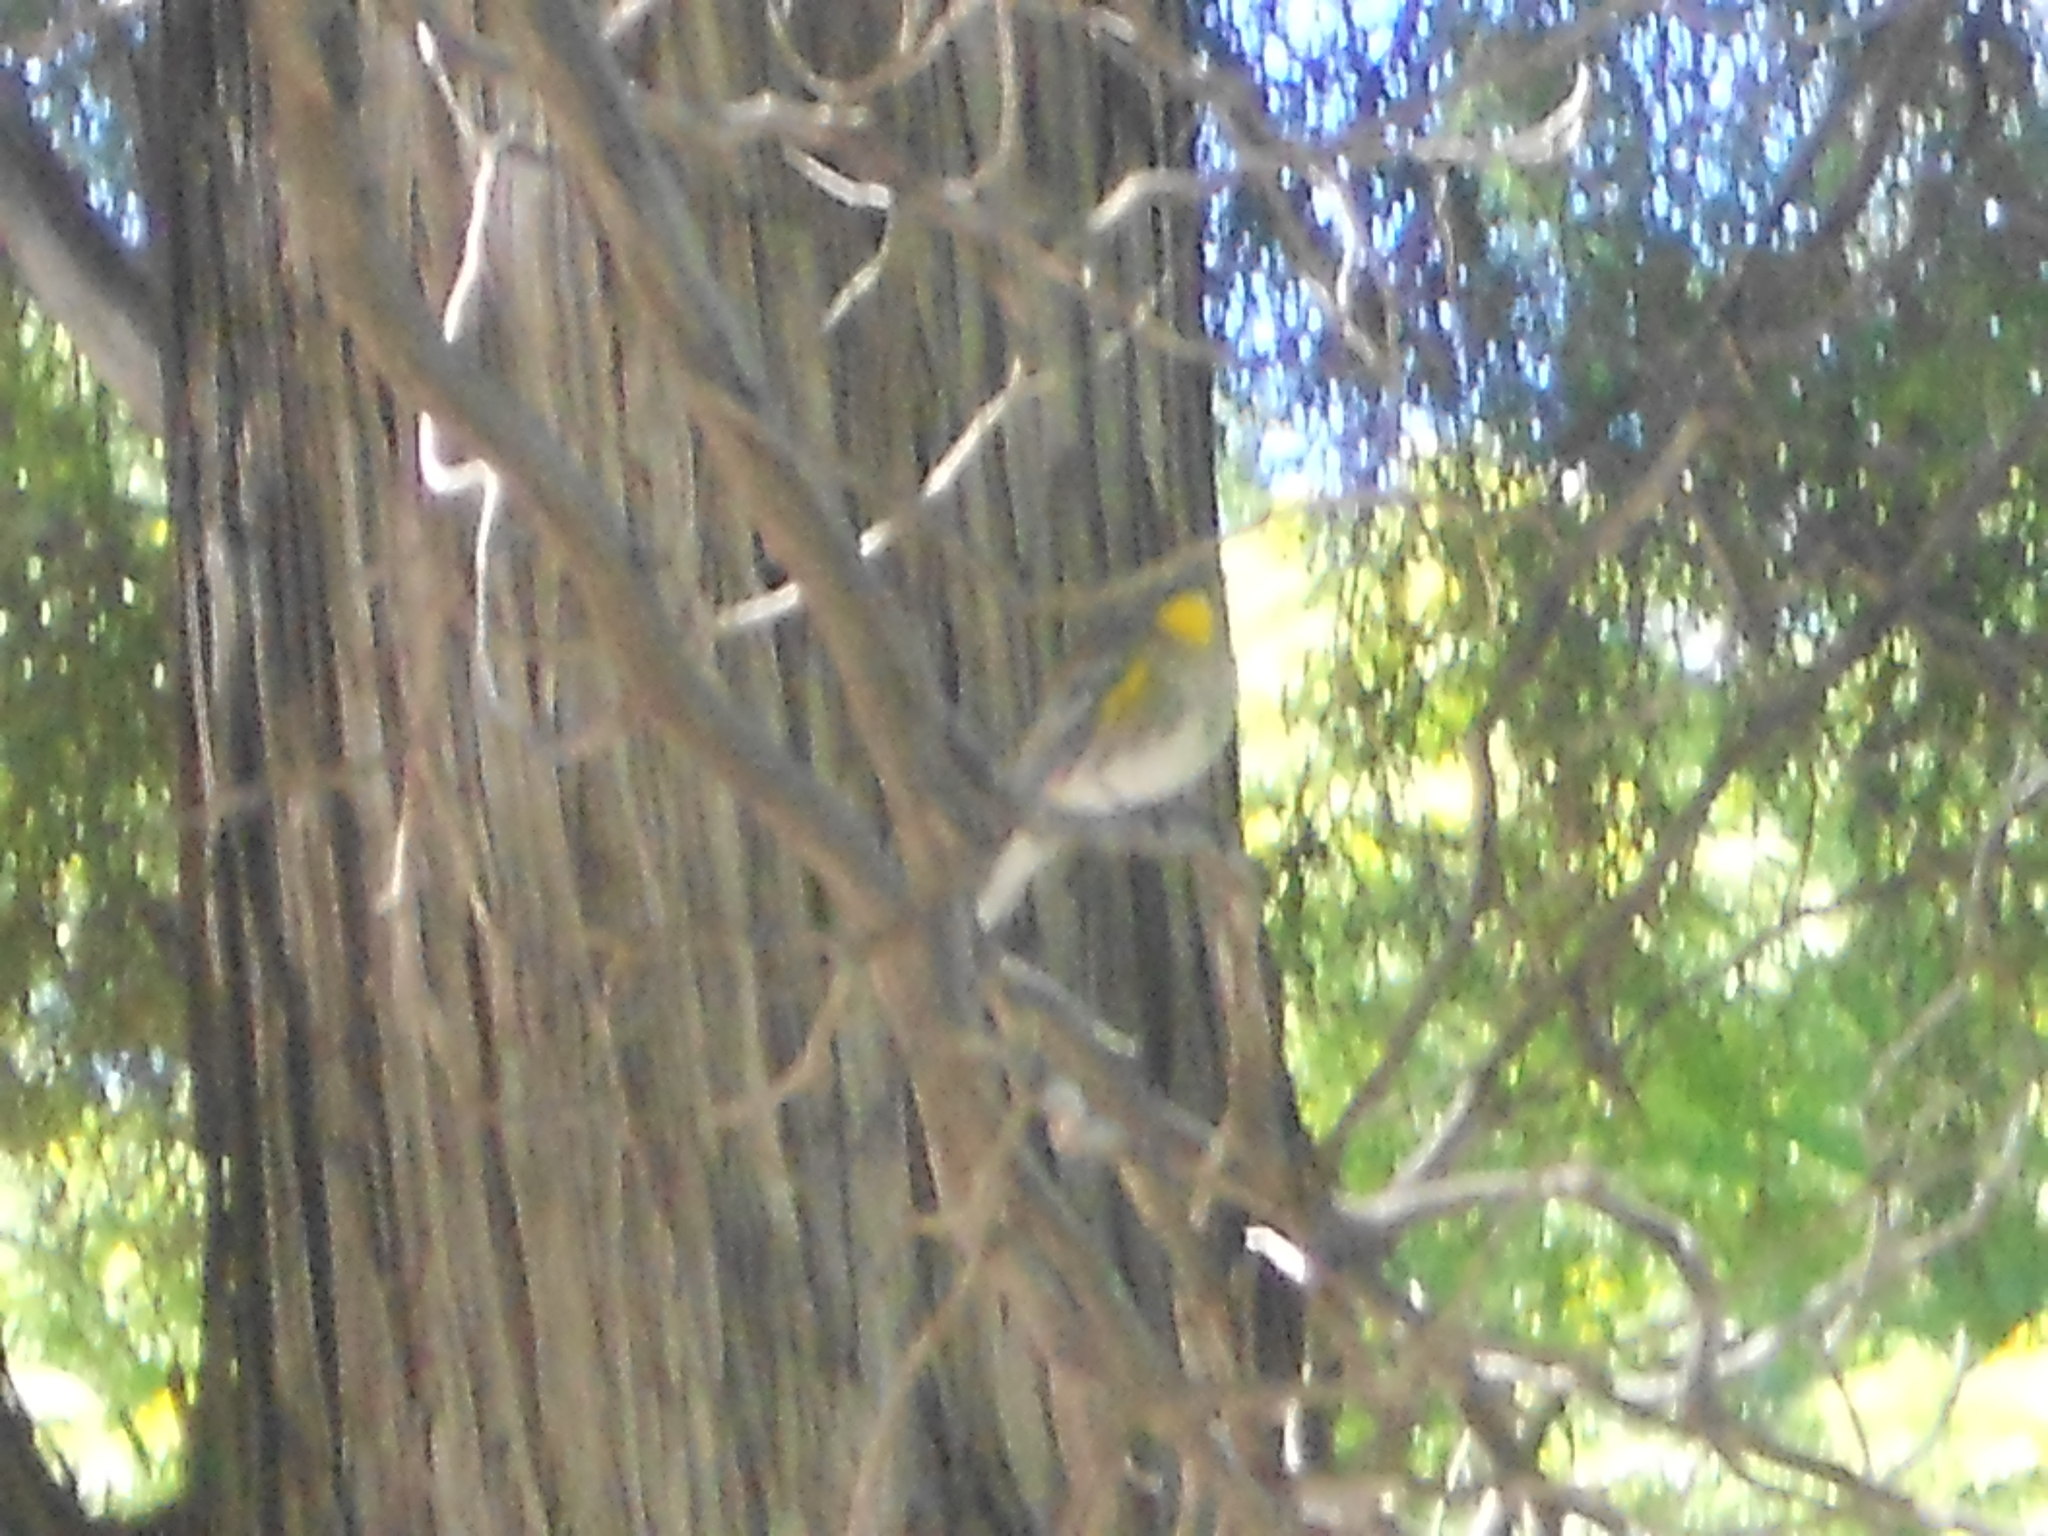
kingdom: Animalia
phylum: Chordata
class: Aves
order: Passeriformes
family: Parulidae
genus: Setophaga
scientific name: Setophaga coronata
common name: Myrtle warbler
